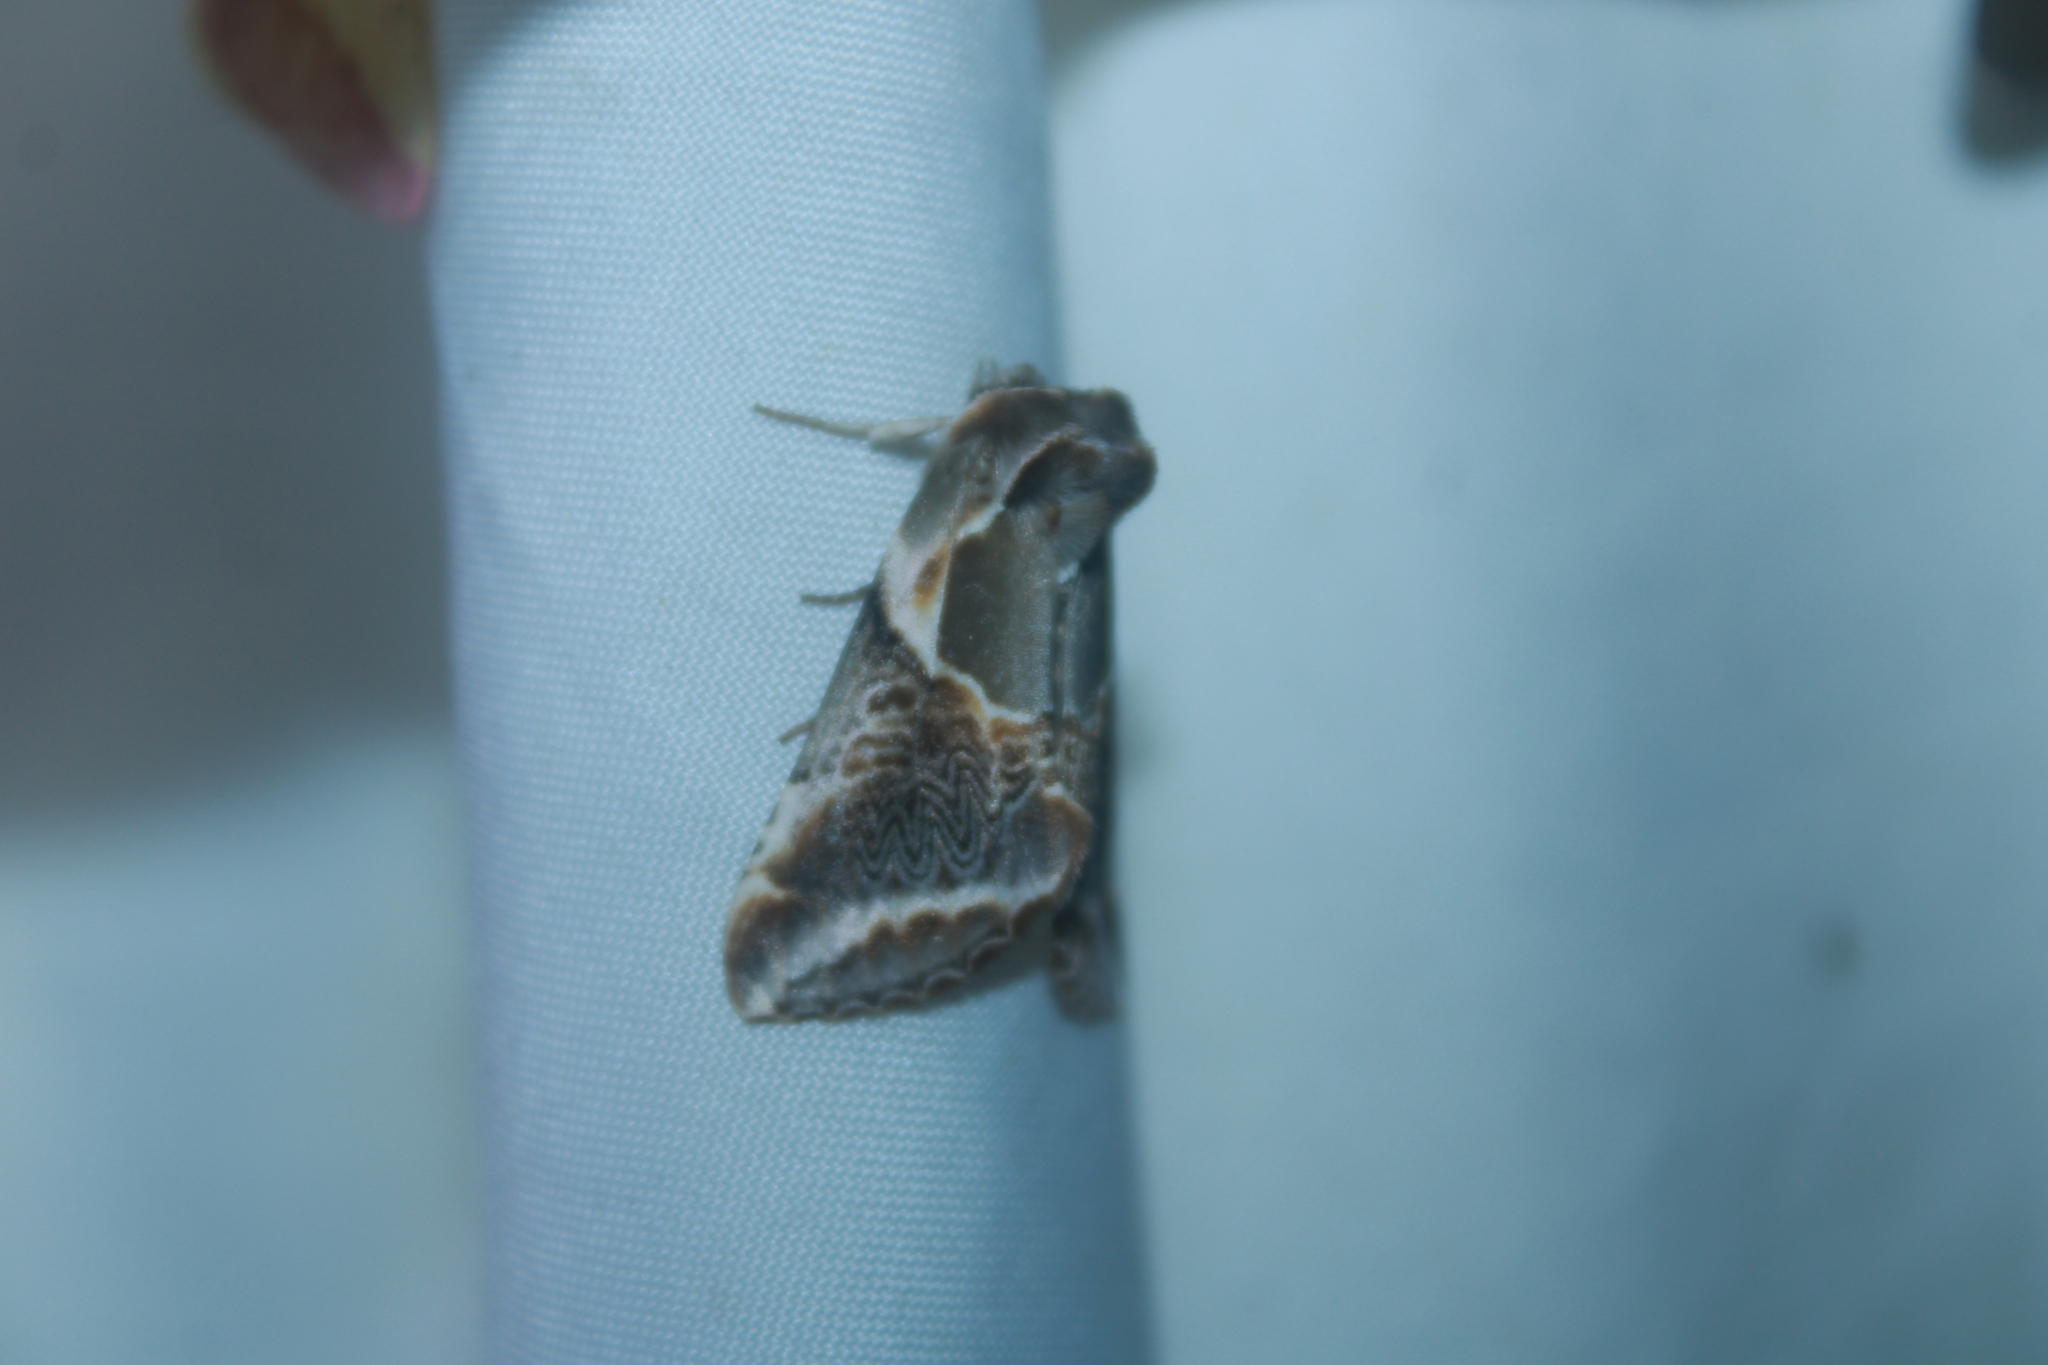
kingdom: Animalia
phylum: Arthropoda
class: Insecta
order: Lepidoptera
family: Drepanidae
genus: Habrosyne
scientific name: Habrosyne scripta
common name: Lettered habrosyne moth
